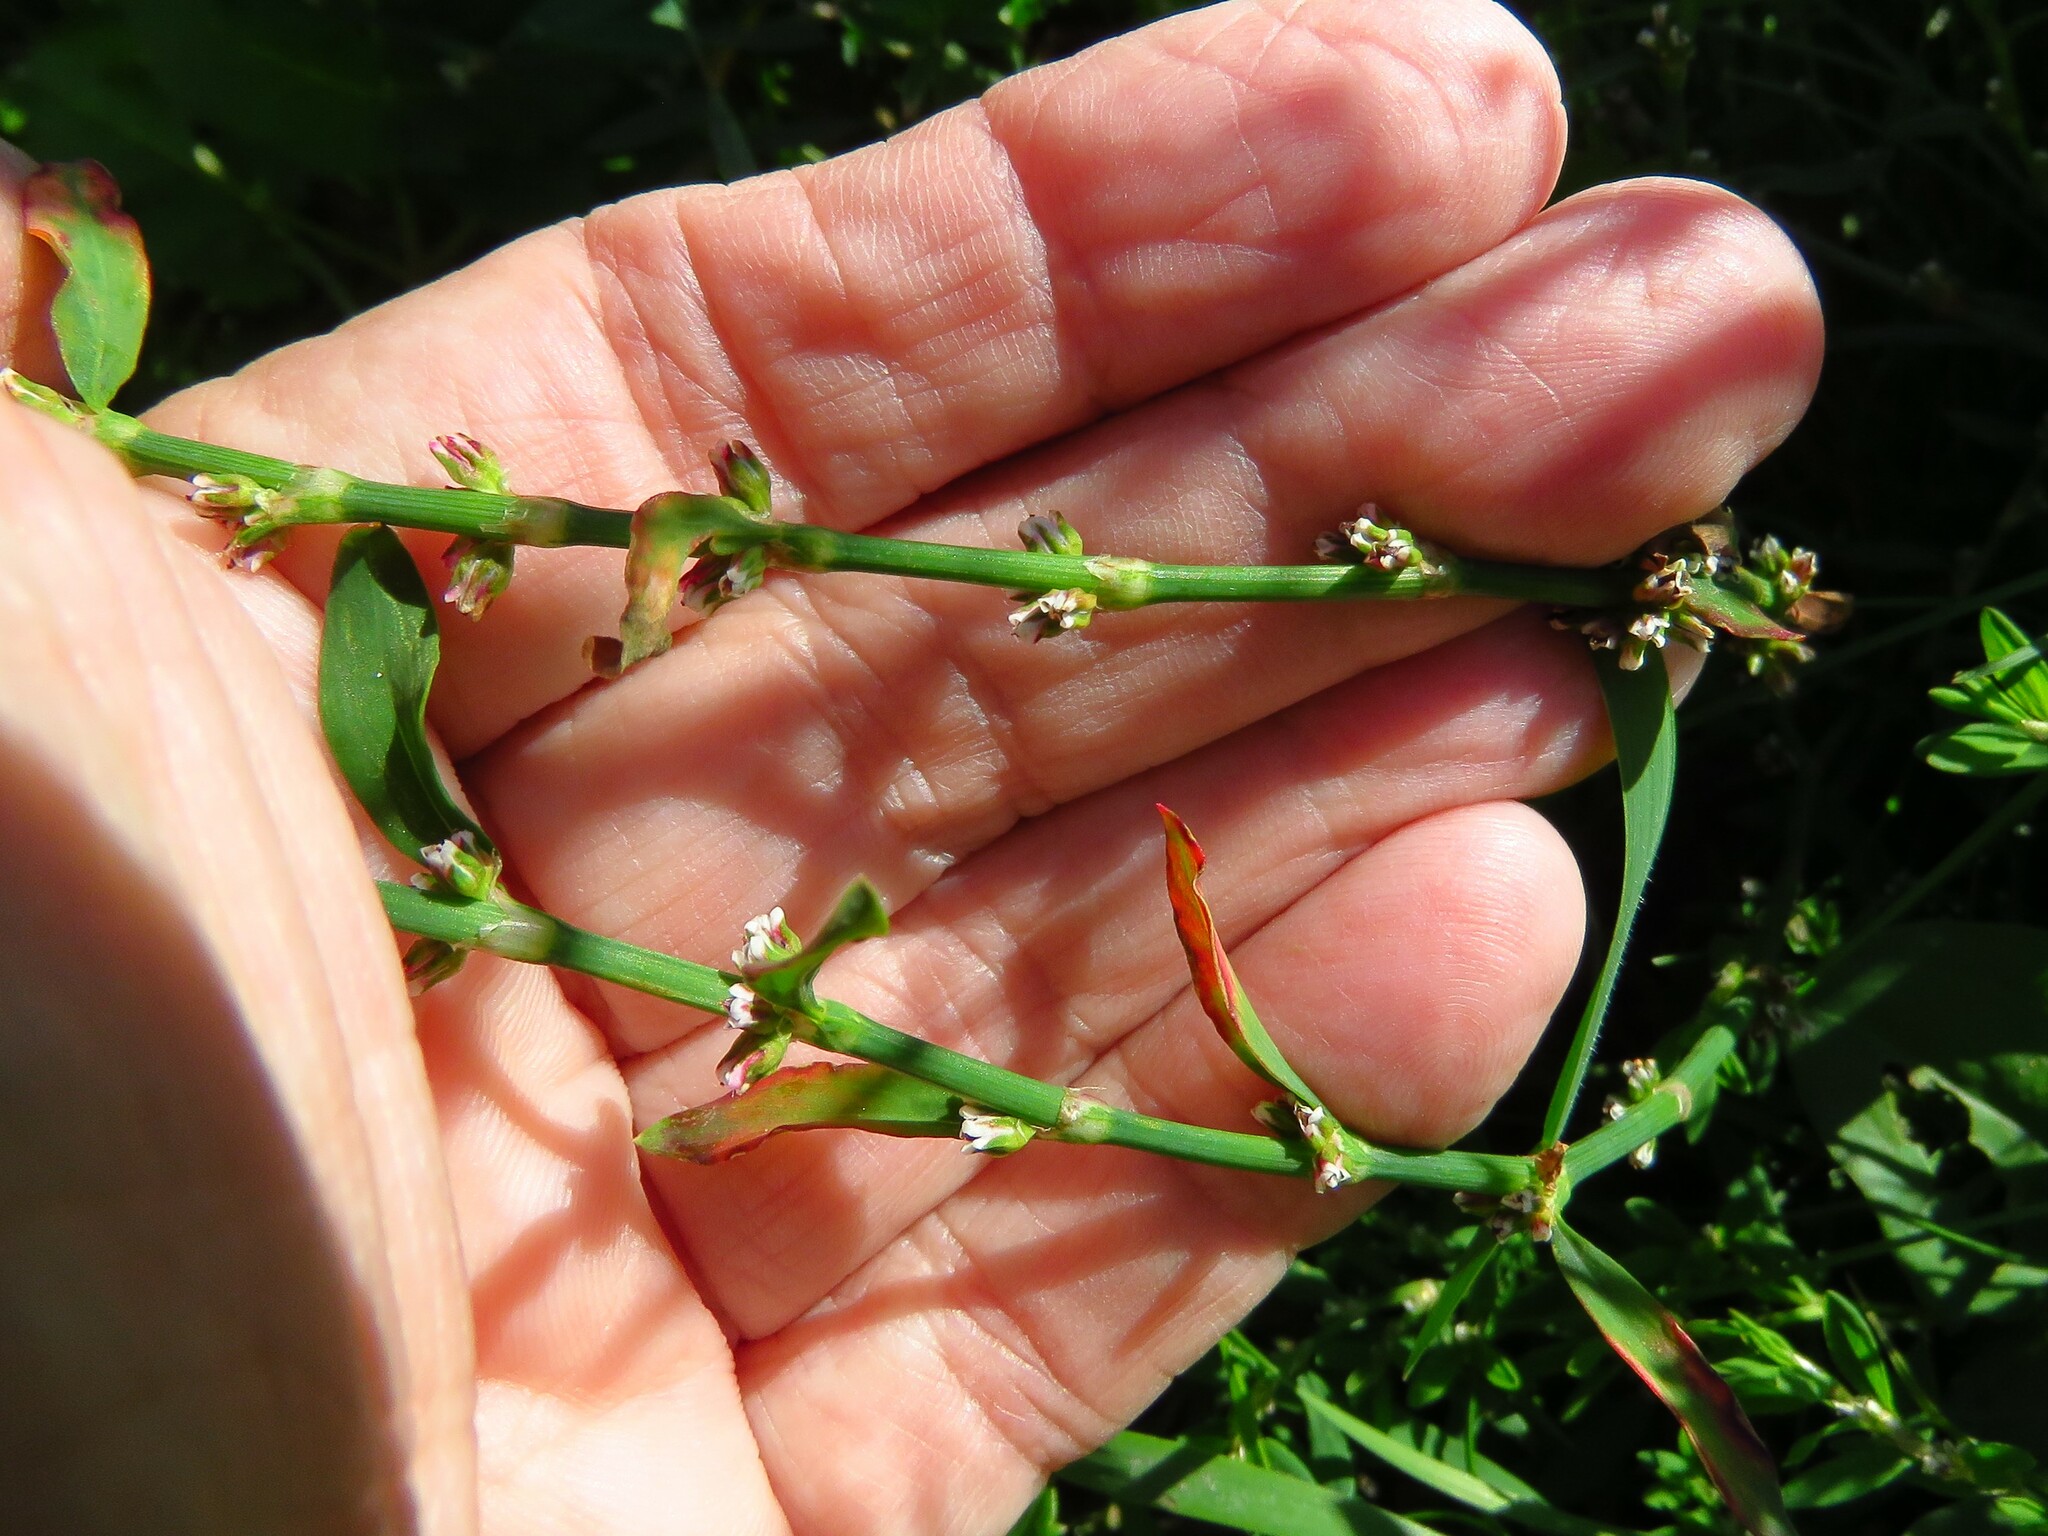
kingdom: Plantae
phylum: Tracheophyta
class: Magnoliopsida
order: Caryophyllales
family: Polygonaceae
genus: Polygonum
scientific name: Polygonum aviculare
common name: Prostrate knotweed
